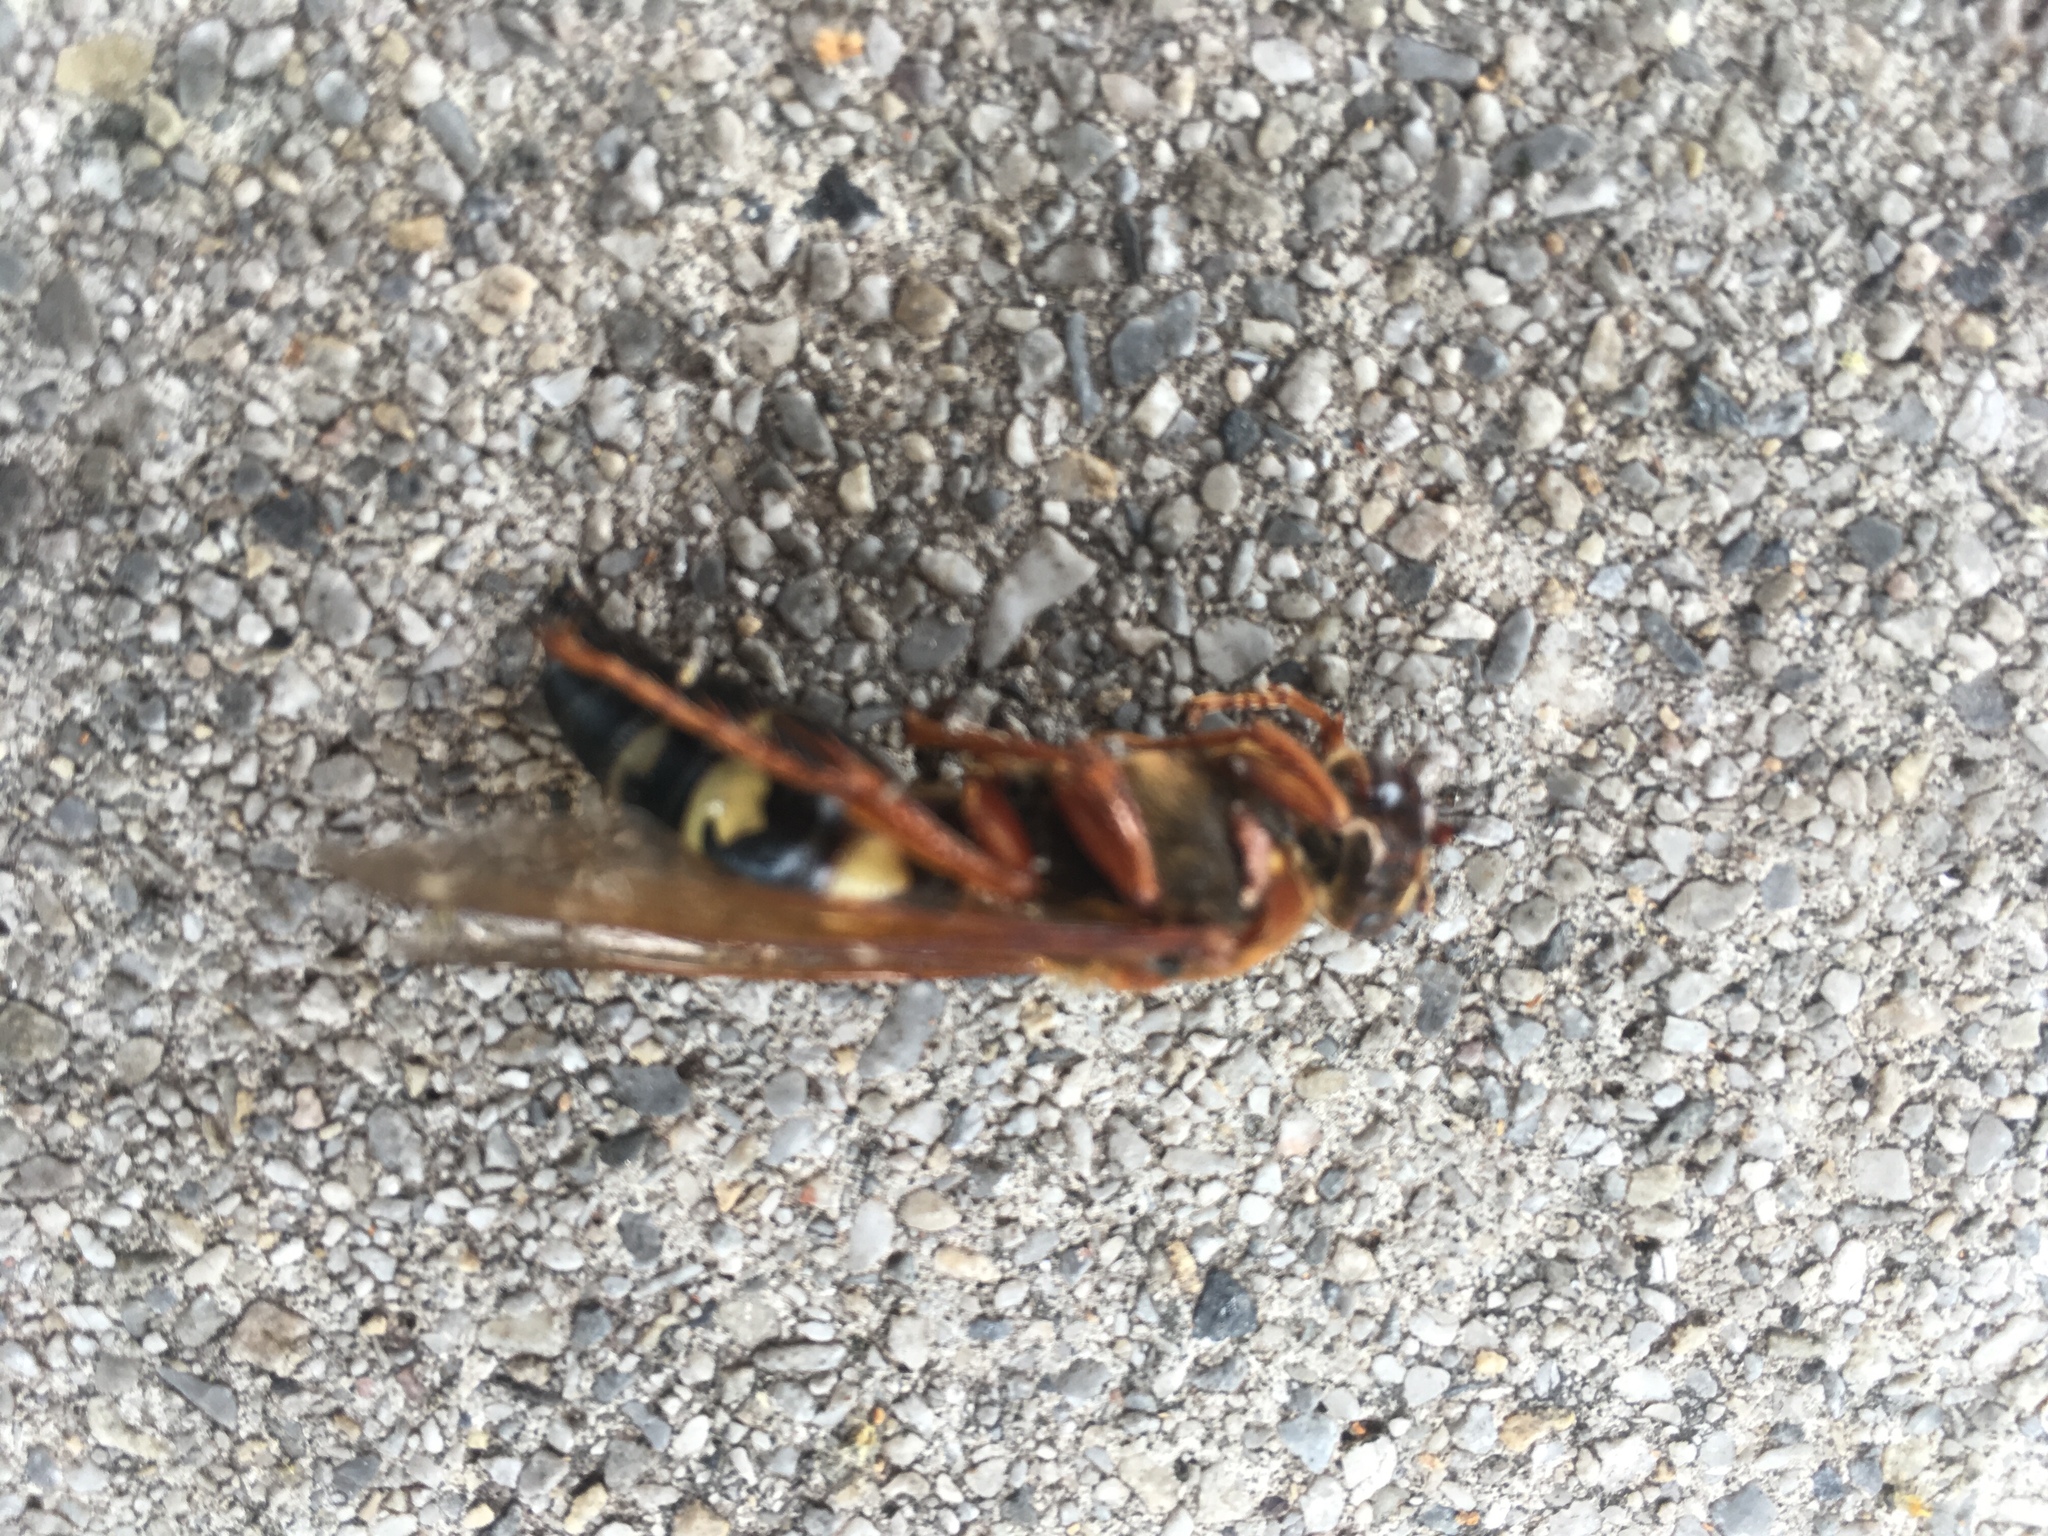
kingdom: Animalia
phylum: Arthropoda
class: Insecta
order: Hymenoptera
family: Crabronidae
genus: Sphecius
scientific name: Sphecius speciosus
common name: Cicada killer
